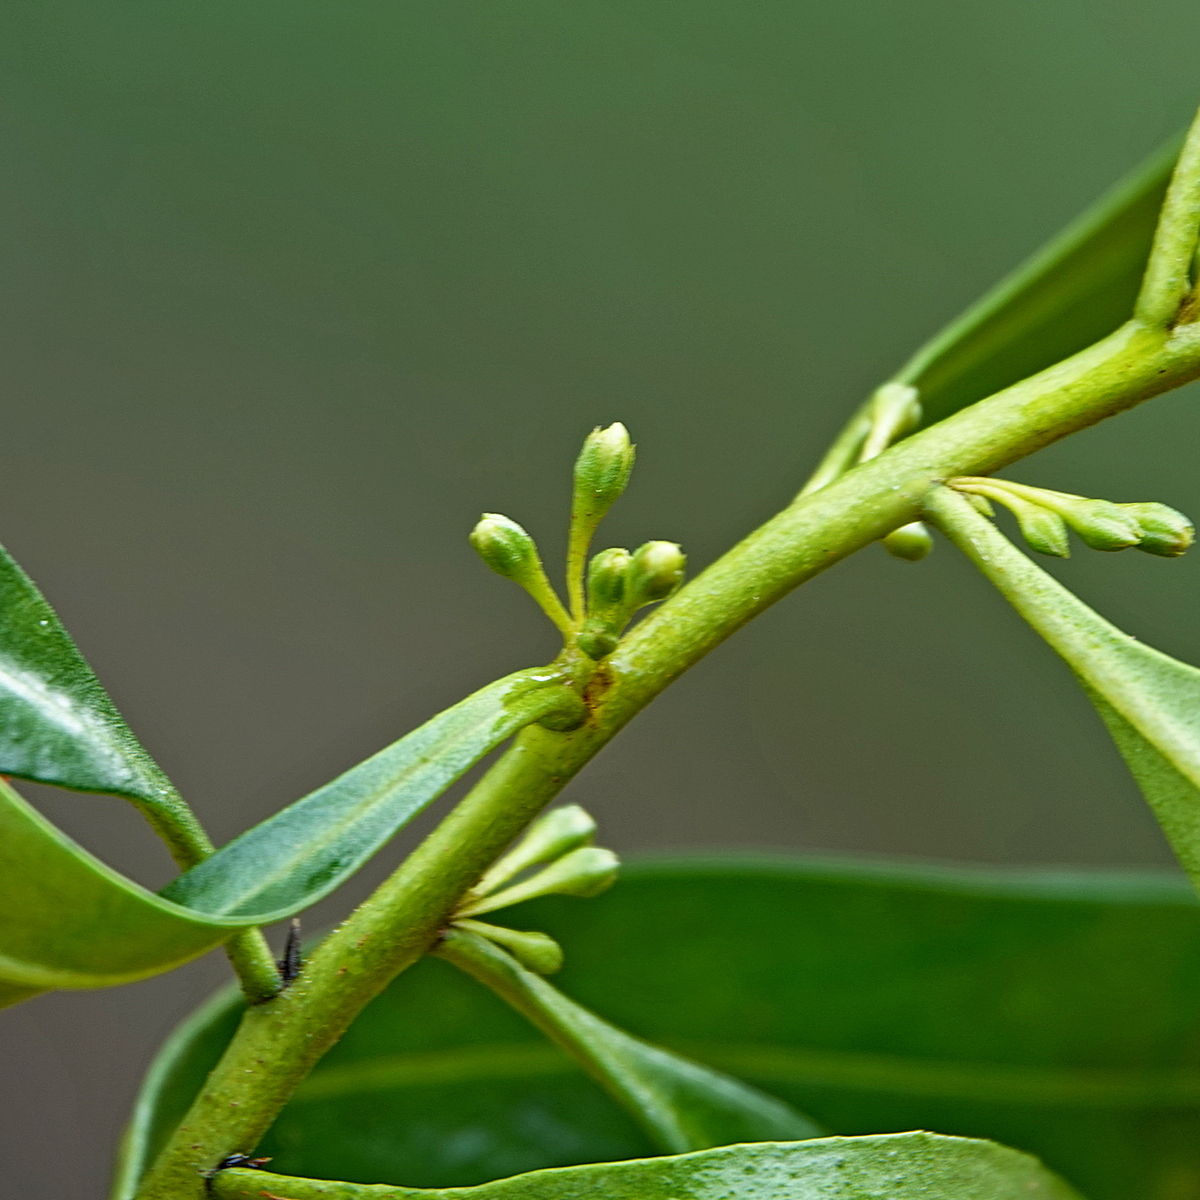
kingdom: Plantae
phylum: Tracheophyta
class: Magnoliopsida
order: Lamiales
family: Scrophulariaceae
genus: Myoporum
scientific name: Myoporum acuminatum
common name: Pointed boobialla
